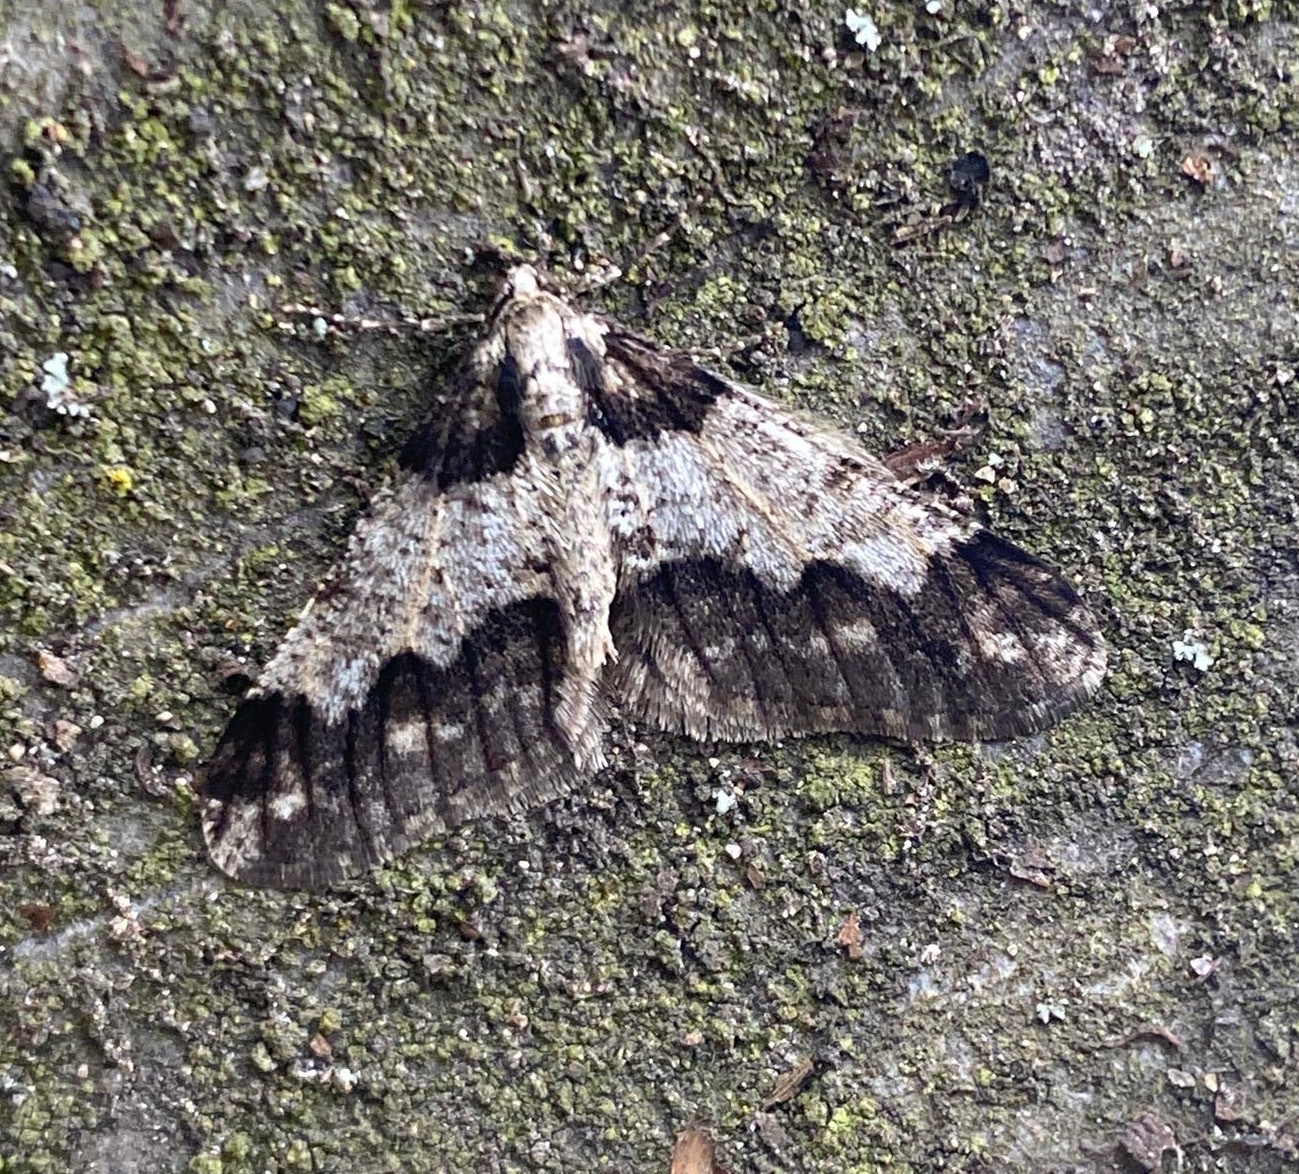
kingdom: Animalia
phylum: Arthropoda
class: Insecta
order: Lepidoptera
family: Geometridae
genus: Agriopis
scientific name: Agriopis leucophaearia
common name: Spring usher
